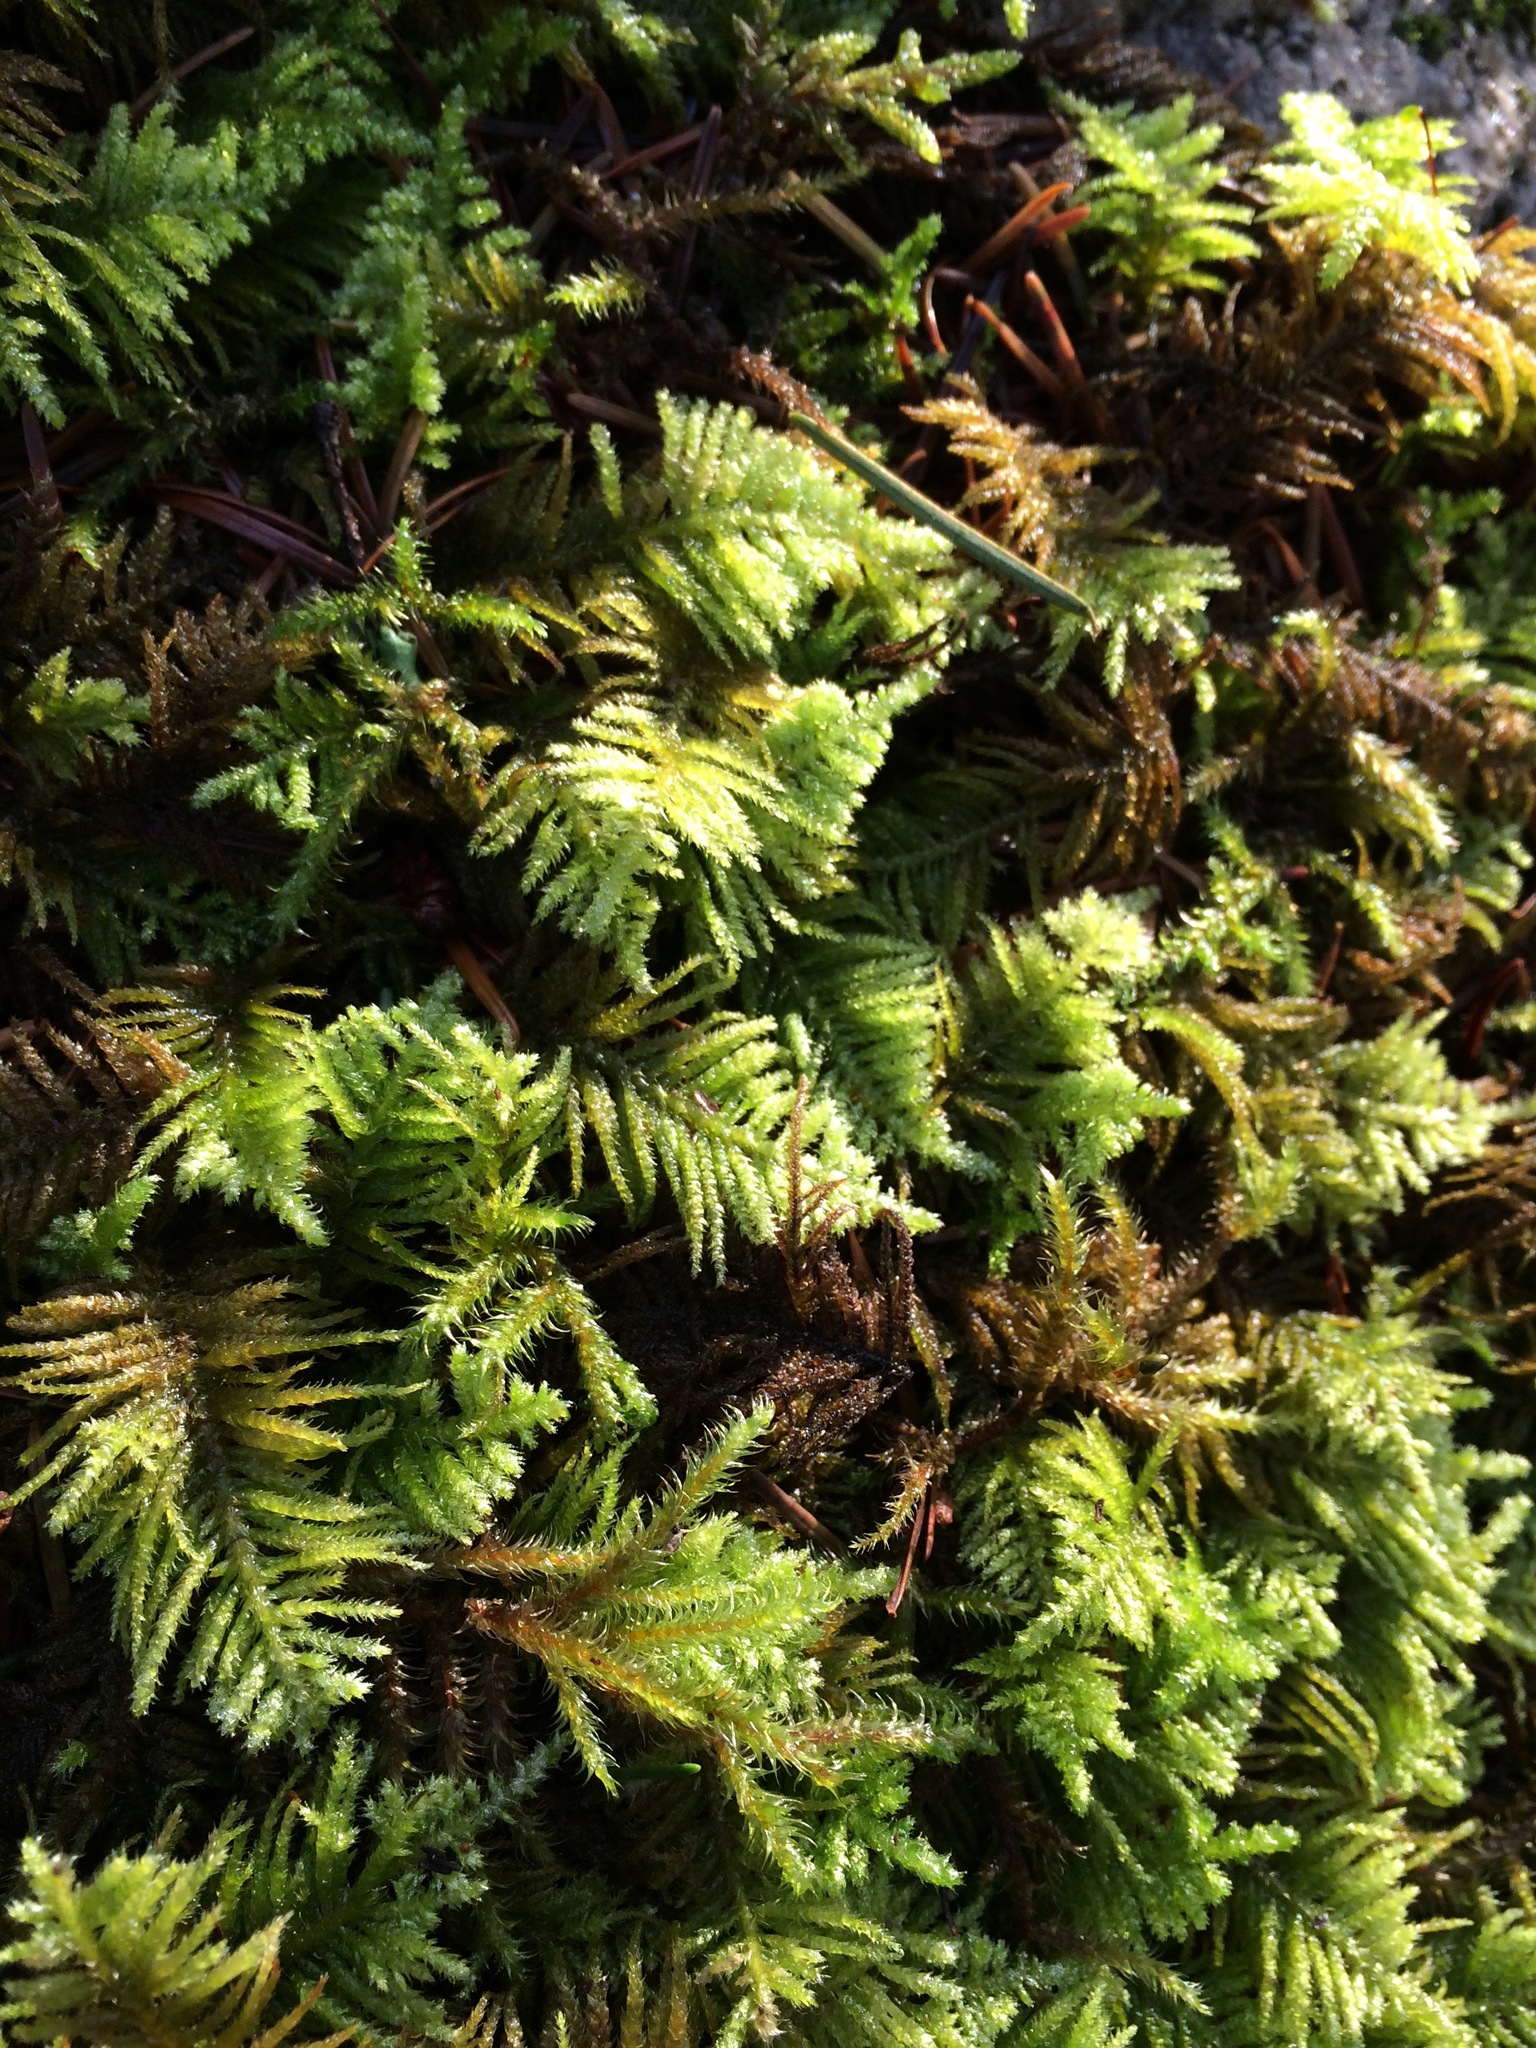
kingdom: Plantae
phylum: Bryophyta
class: Bryopsida
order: Hypnales
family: Brachytheciaceae
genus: Kindbergia
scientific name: Kindbergia oregana
